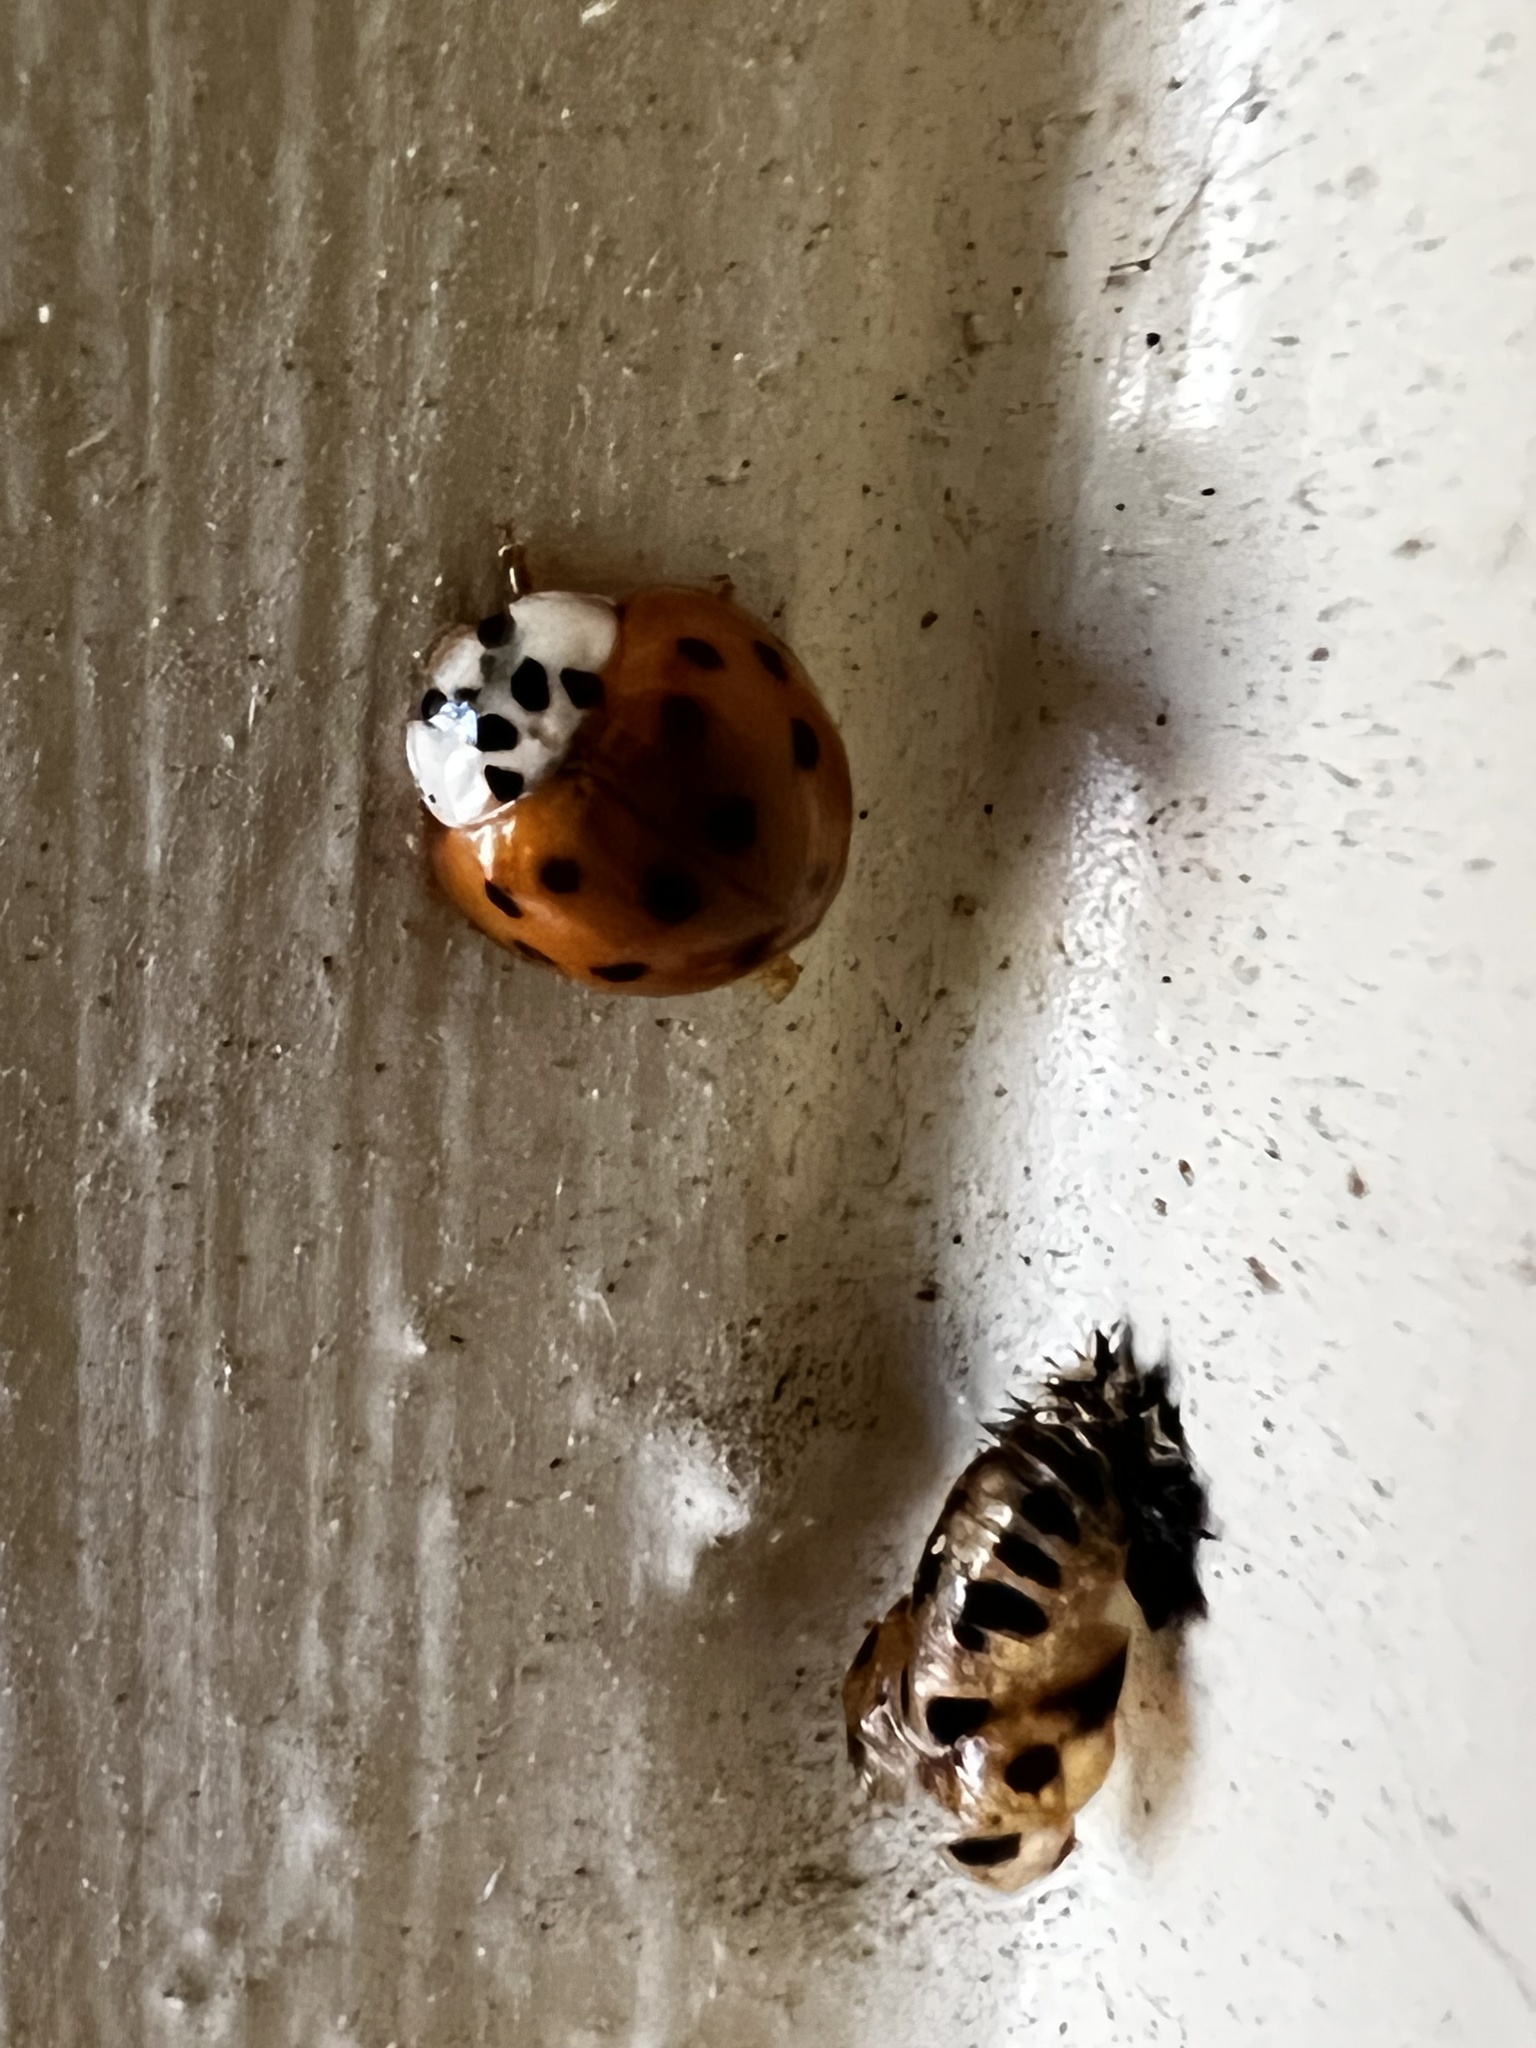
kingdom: Animalia
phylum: Arthropoda
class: Insecta
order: Coleoptera
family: Coccinellidae
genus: Harmonia
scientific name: Harmonia axyridis
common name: Harlequin ladybird
